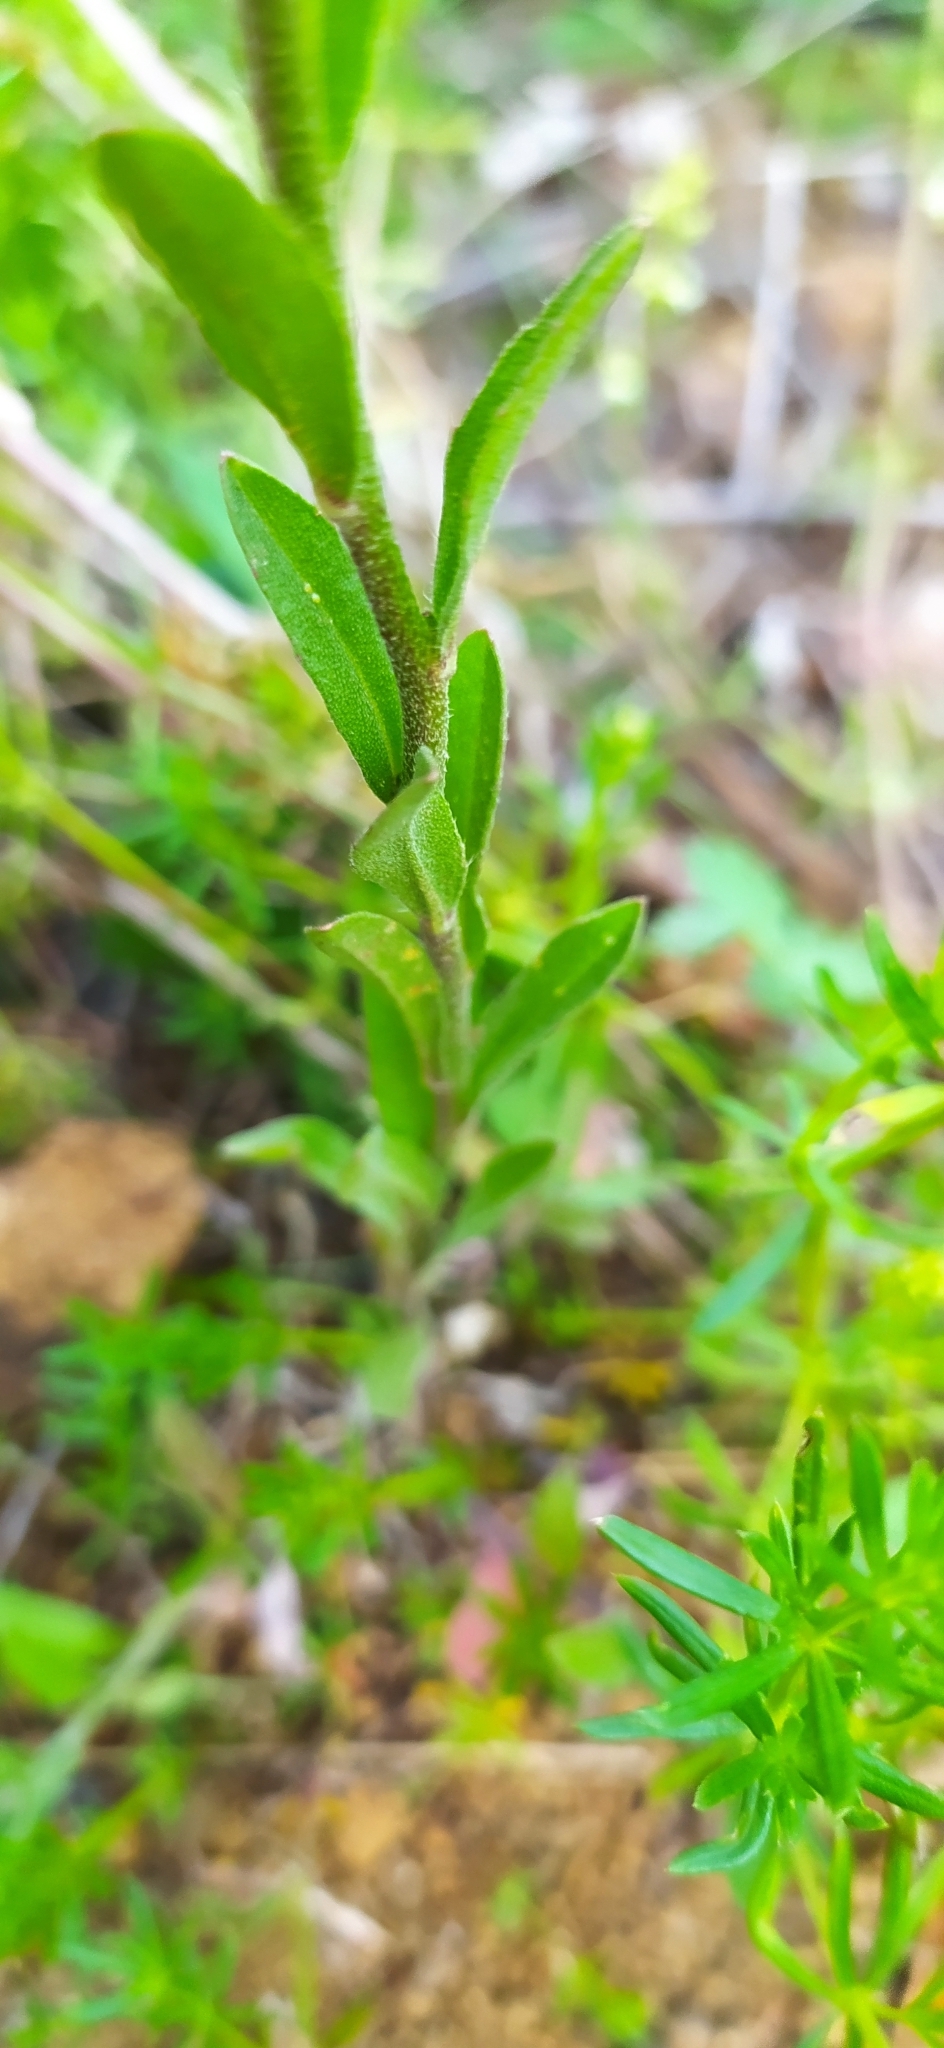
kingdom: Plantae
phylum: Tracheophyta
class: Magnoliopsida
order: Brassicales
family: Brassicaceae
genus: Berteroa
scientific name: Berteroa incana
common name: Hoary alison
